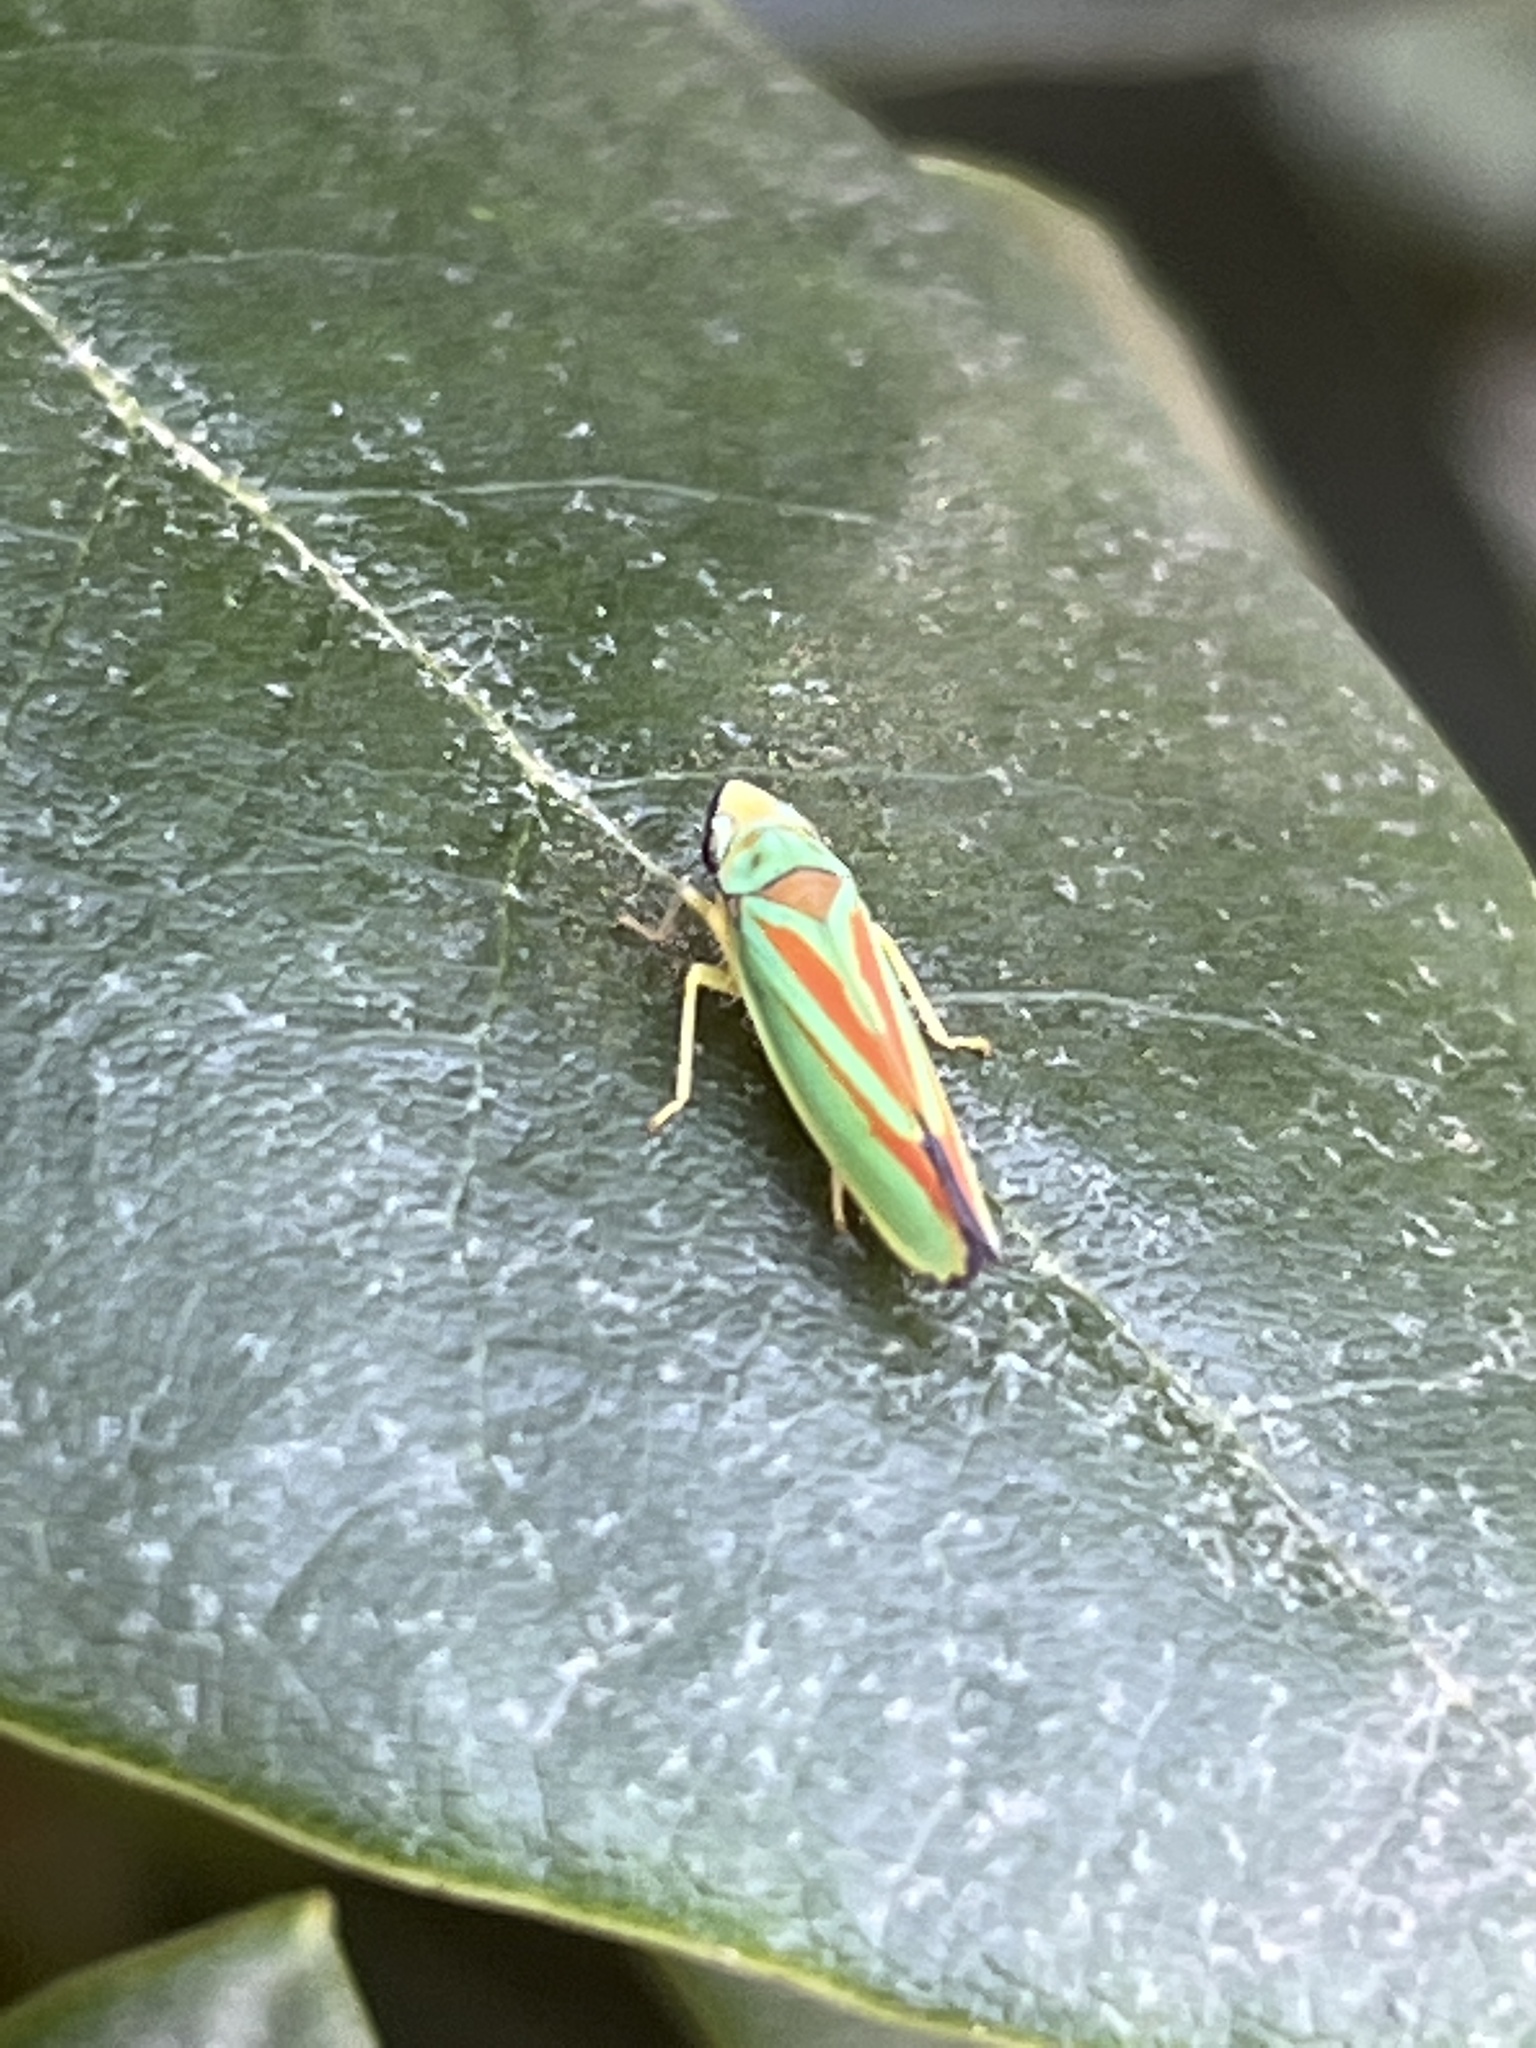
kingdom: Animalia
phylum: Arthropoda
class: Insecta
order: Hemiptera
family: Cicadellidae
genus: Graphocephala
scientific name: Graphocephala fennahi
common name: Rhododendron leafhopper
